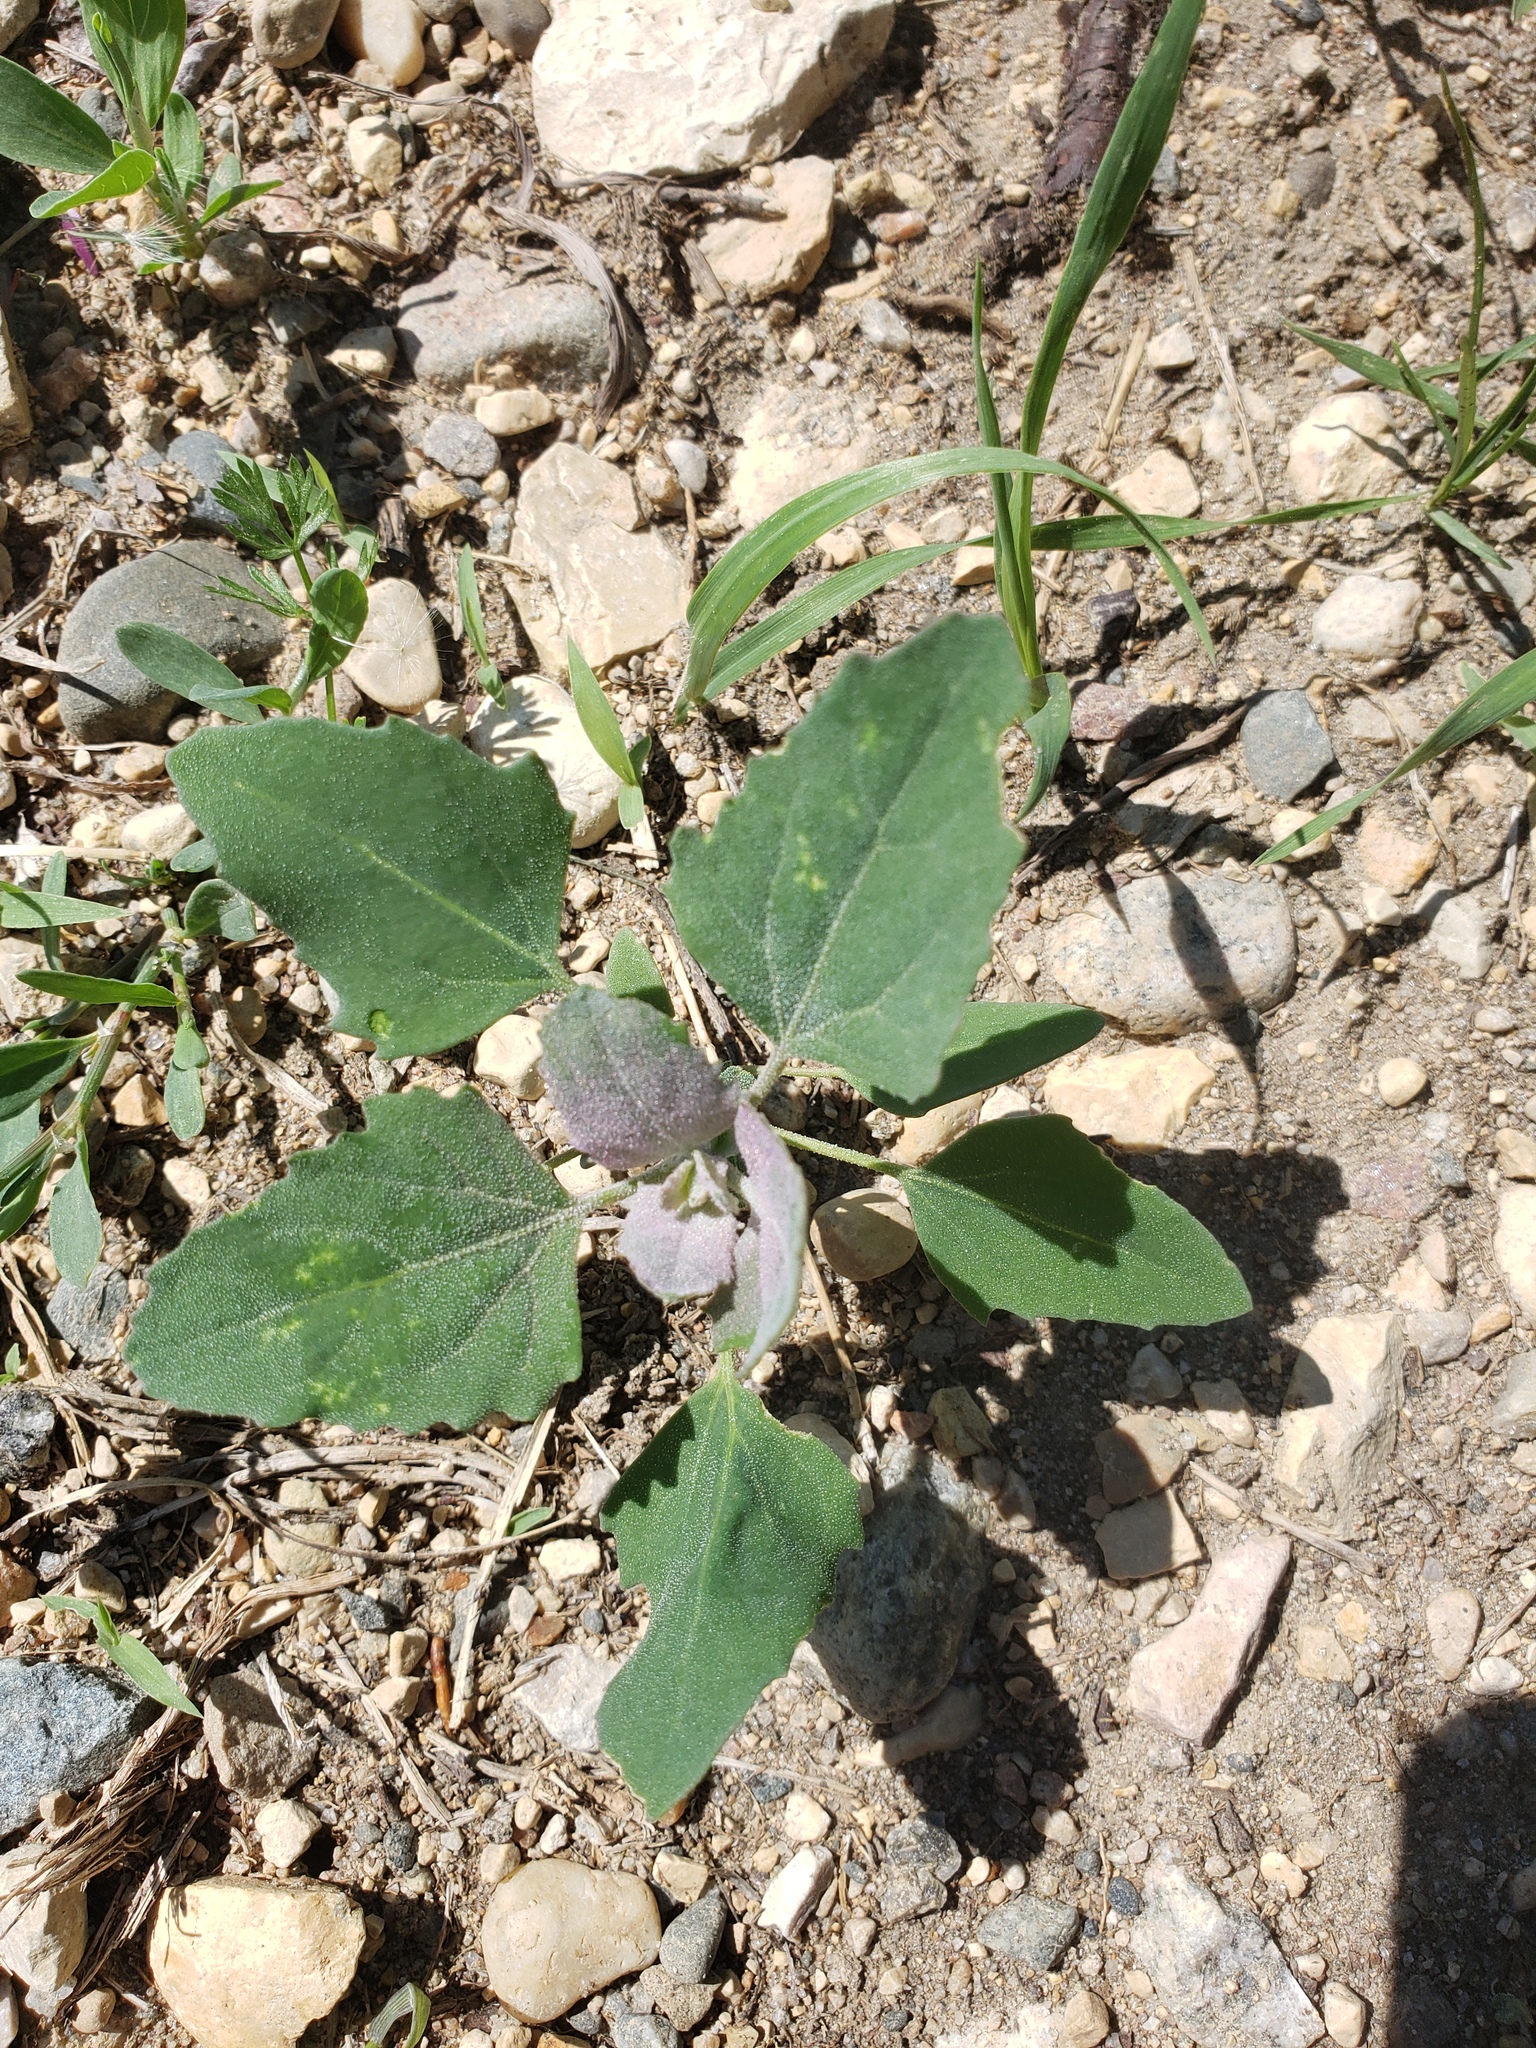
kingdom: Plantae
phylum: Tracheophyta
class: Magnoliopsida
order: Caryophyllales
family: Amaranthaceae
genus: Chenopodium
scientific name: Chenopodium album
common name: Fat-hen
